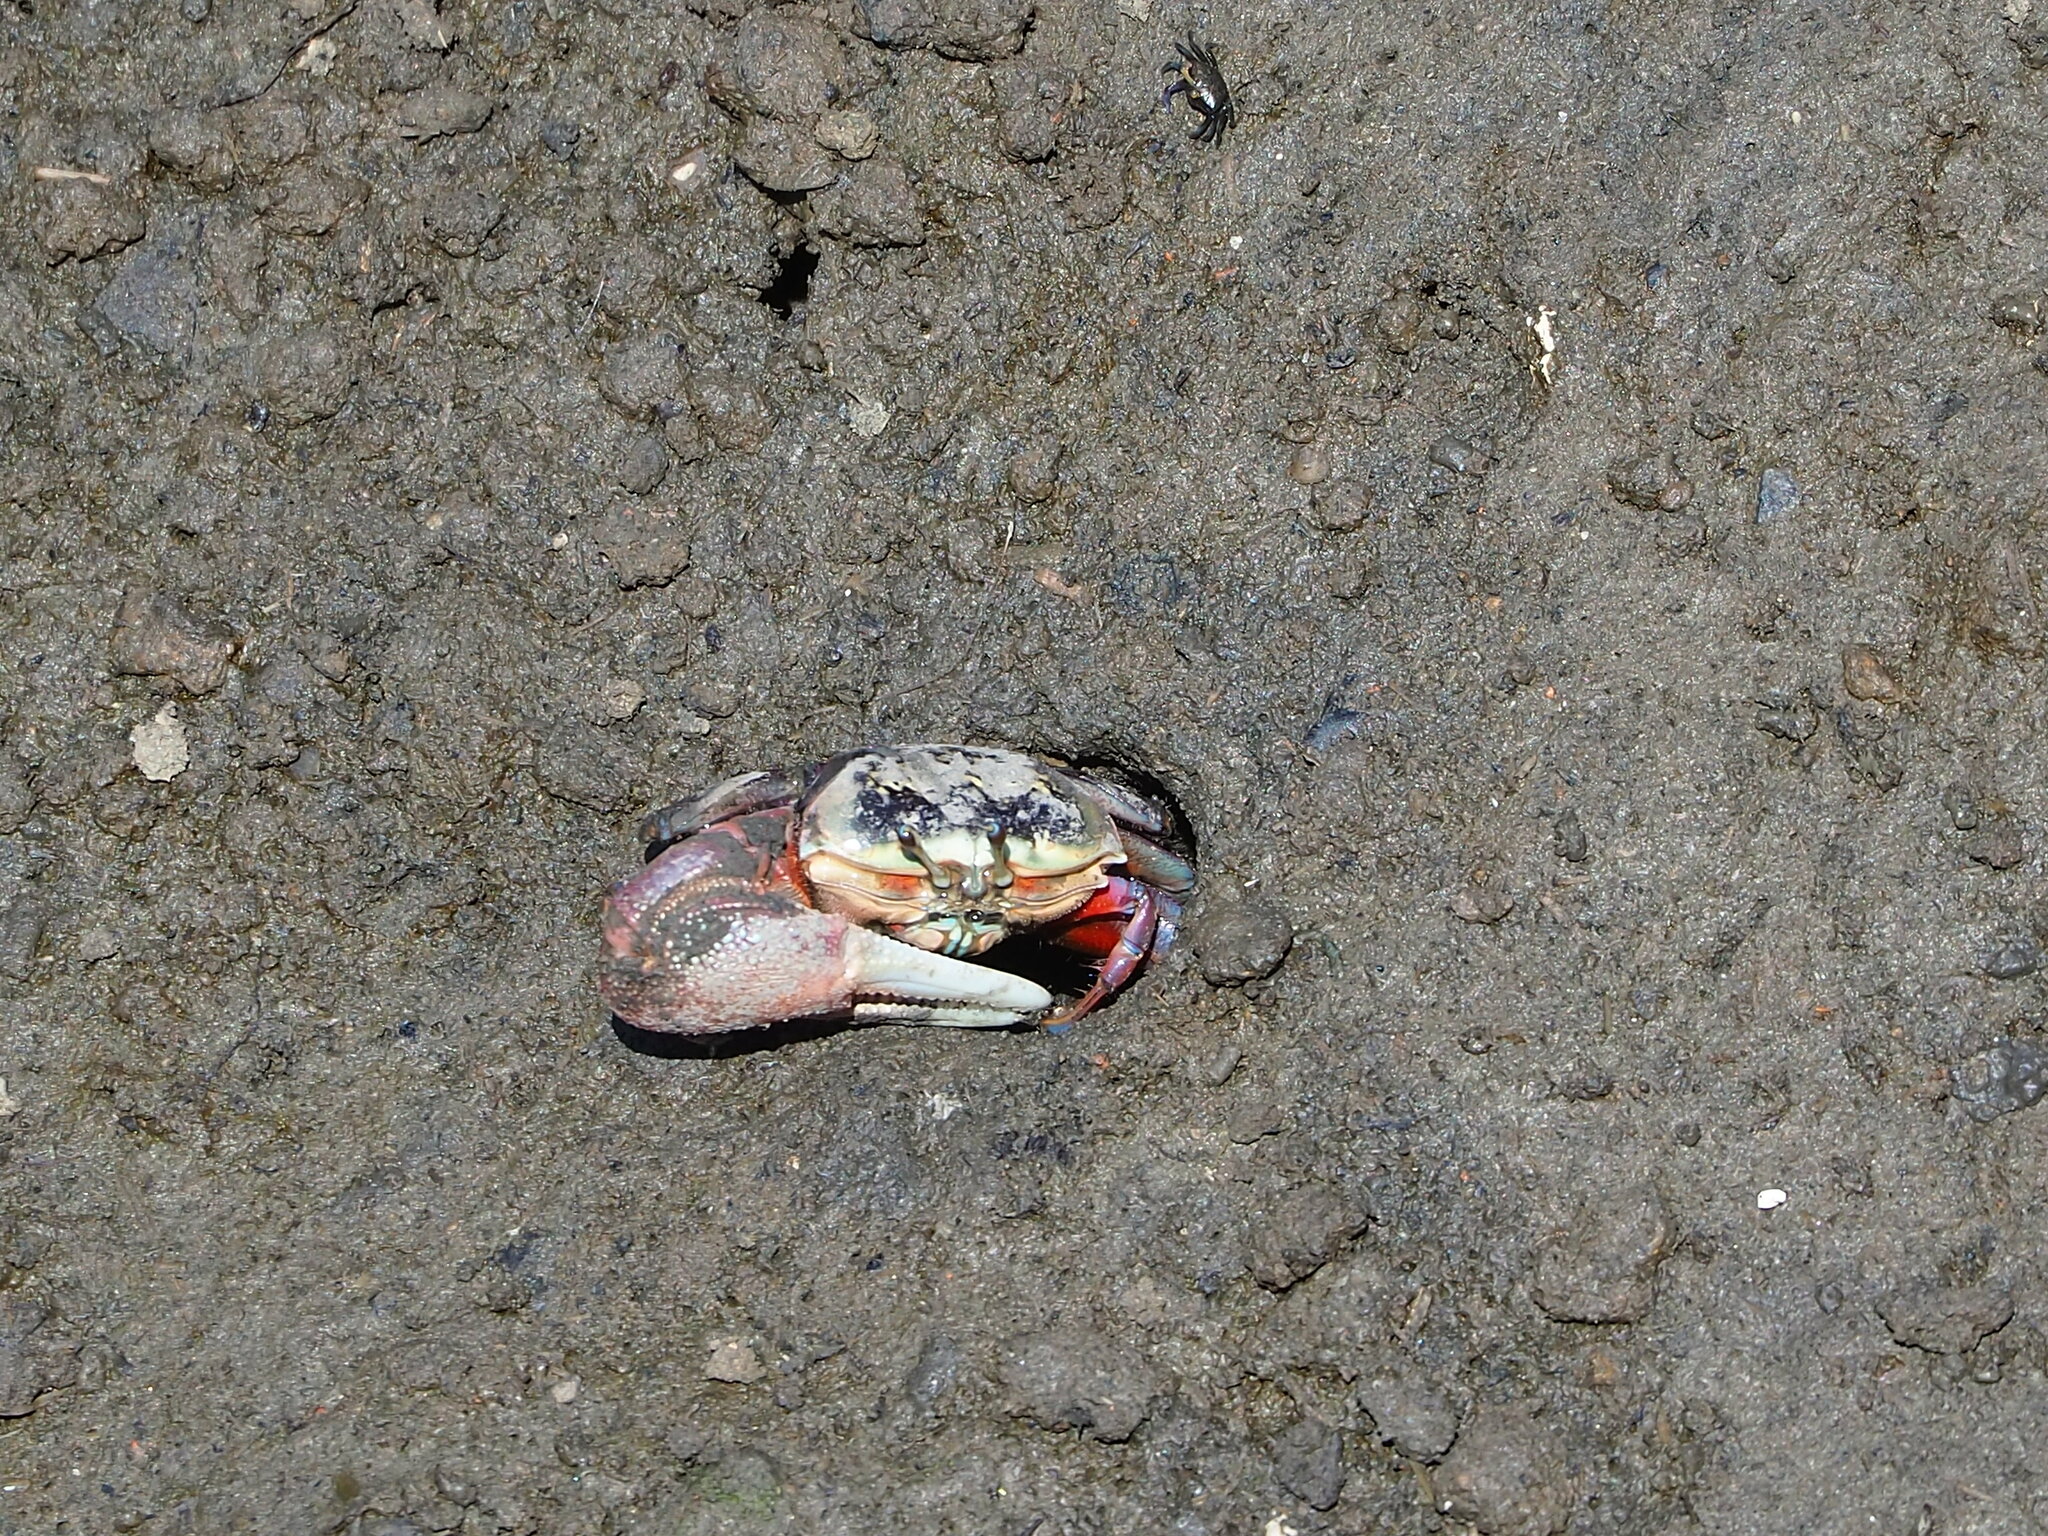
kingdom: Animalia
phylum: Arthropoda
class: Malacostraca
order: Decapoda
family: Ocypodidae
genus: Tubuca
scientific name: Tubuca arcuata
